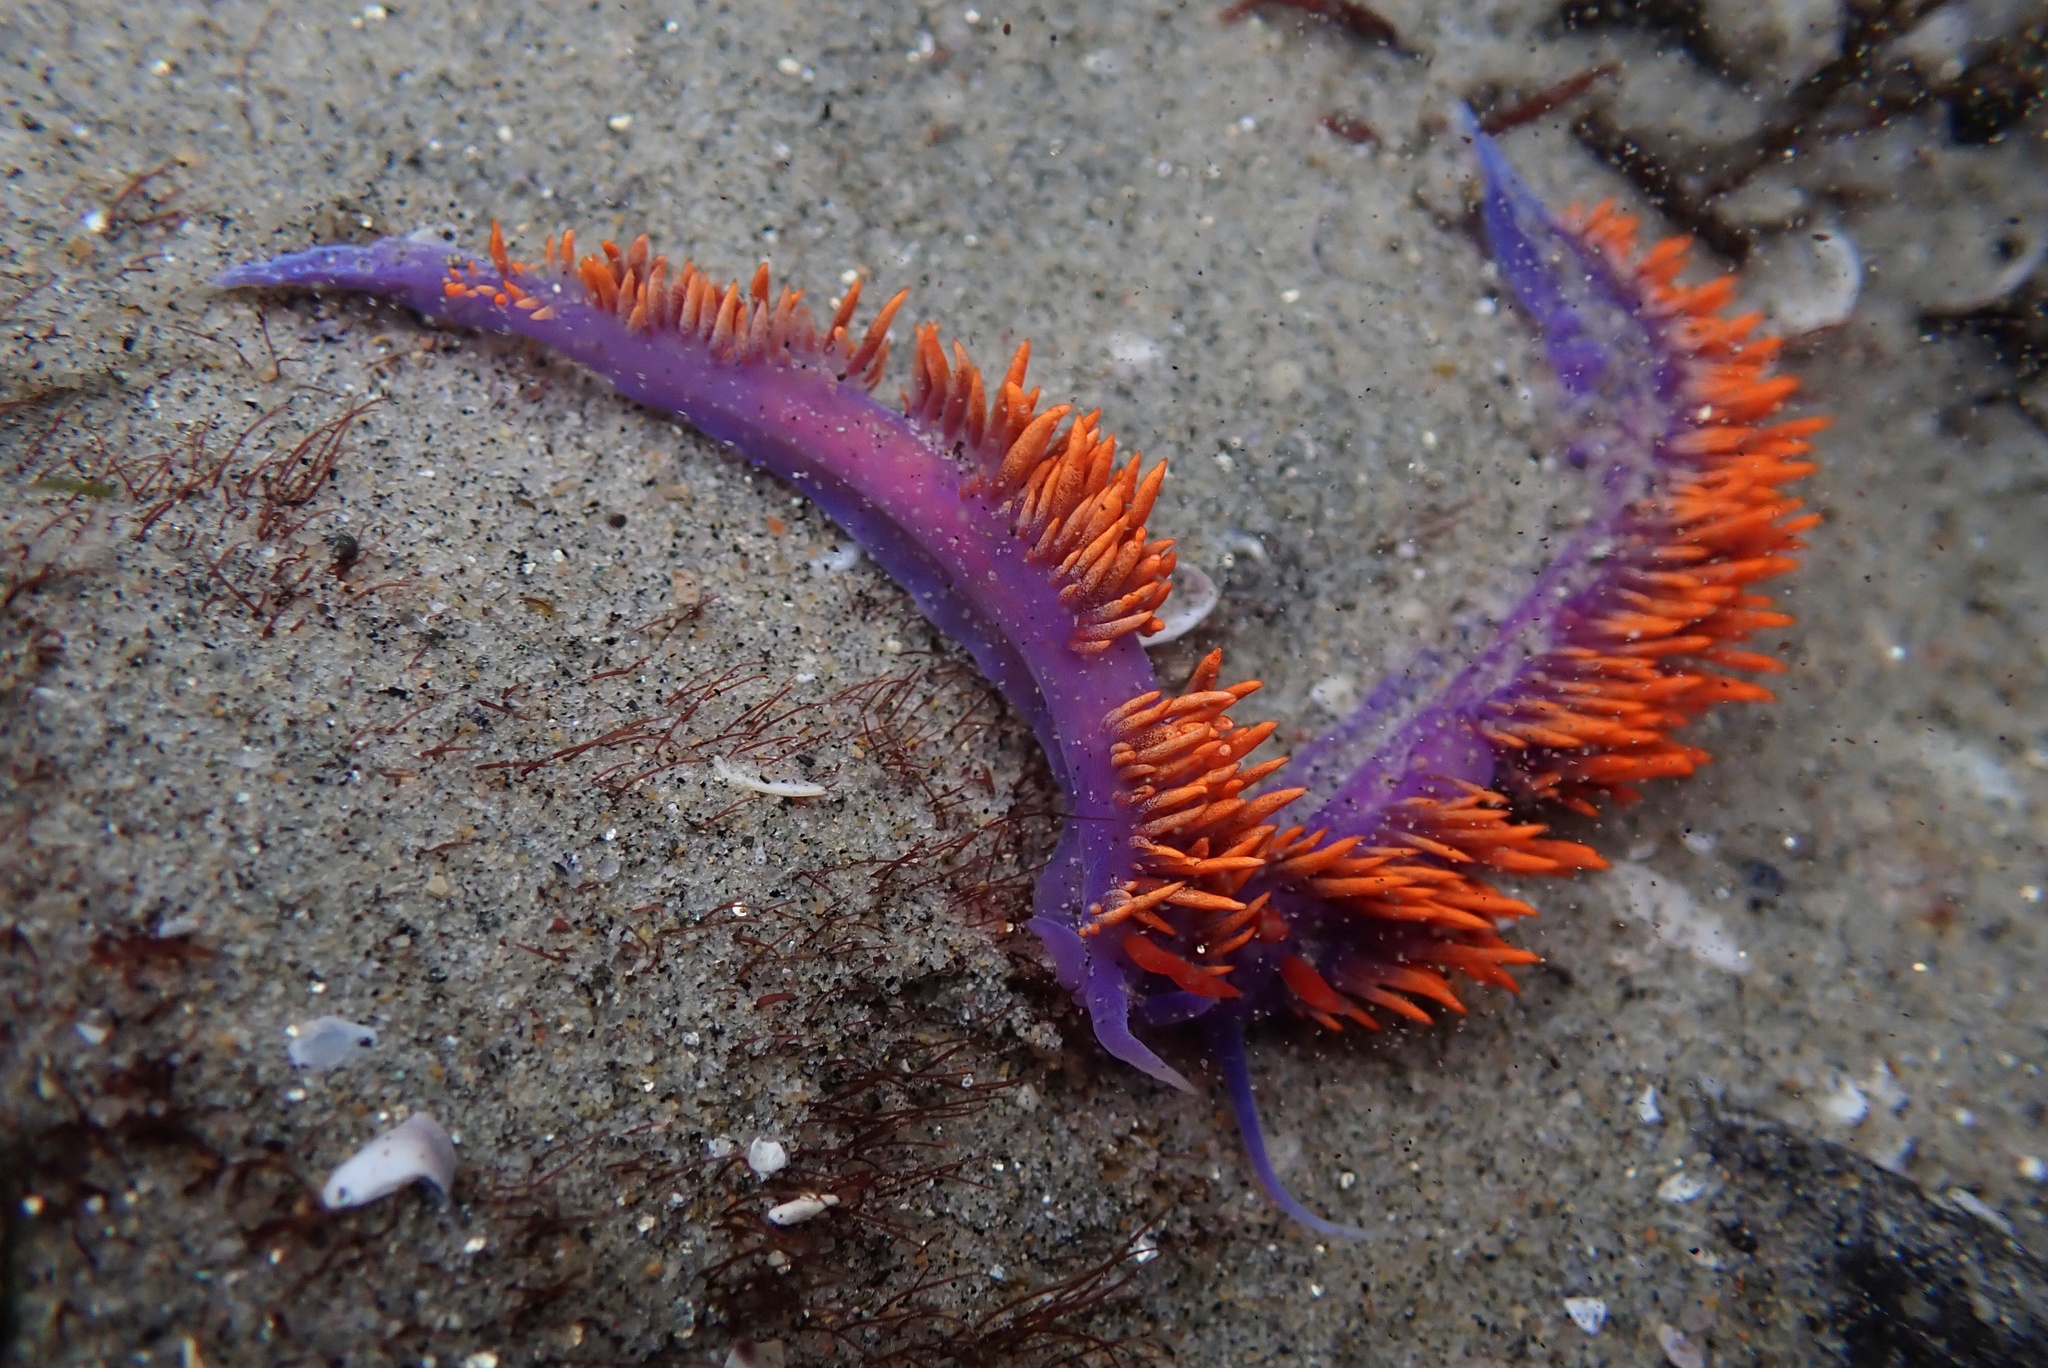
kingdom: Animalia
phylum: Mollusca
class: Gastropoda
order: Nudibranchia
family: Flabellinopsidae
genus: Flabellinopsis
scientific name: Flabellinopsis iodinea
